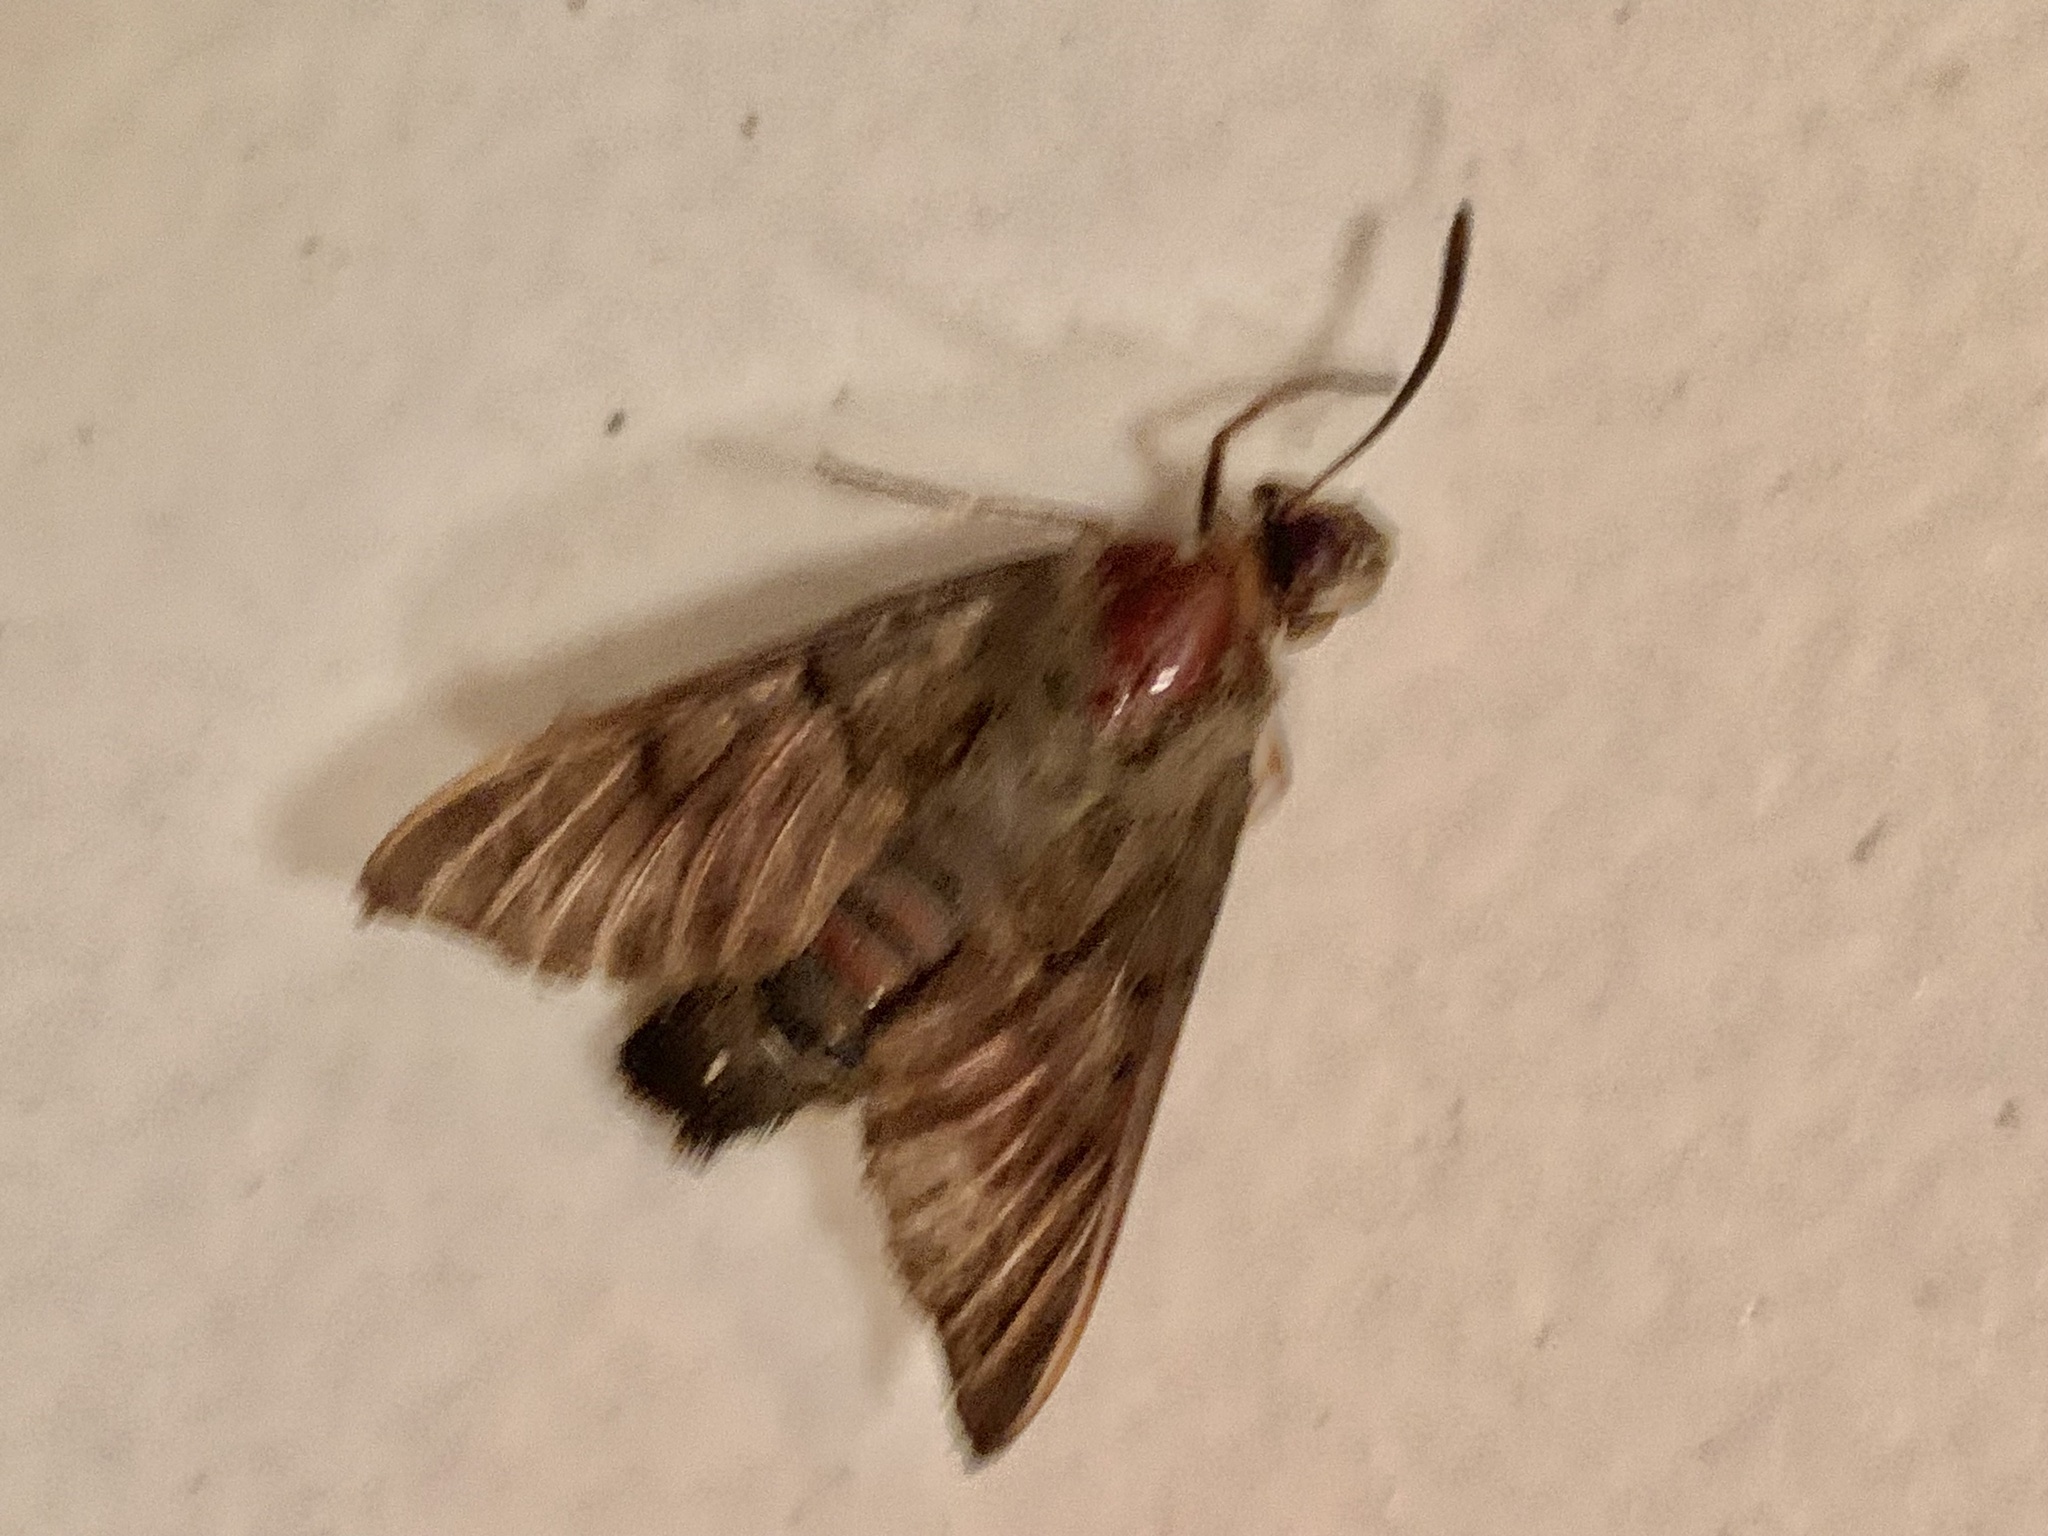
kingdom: Animalia
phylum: Arthropoda
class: Insecta
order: Lepidoptera
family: Sphingidae
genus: Macroglossum
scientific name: Macroglossum stellatarum
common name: Humming-bird hawk-moth
